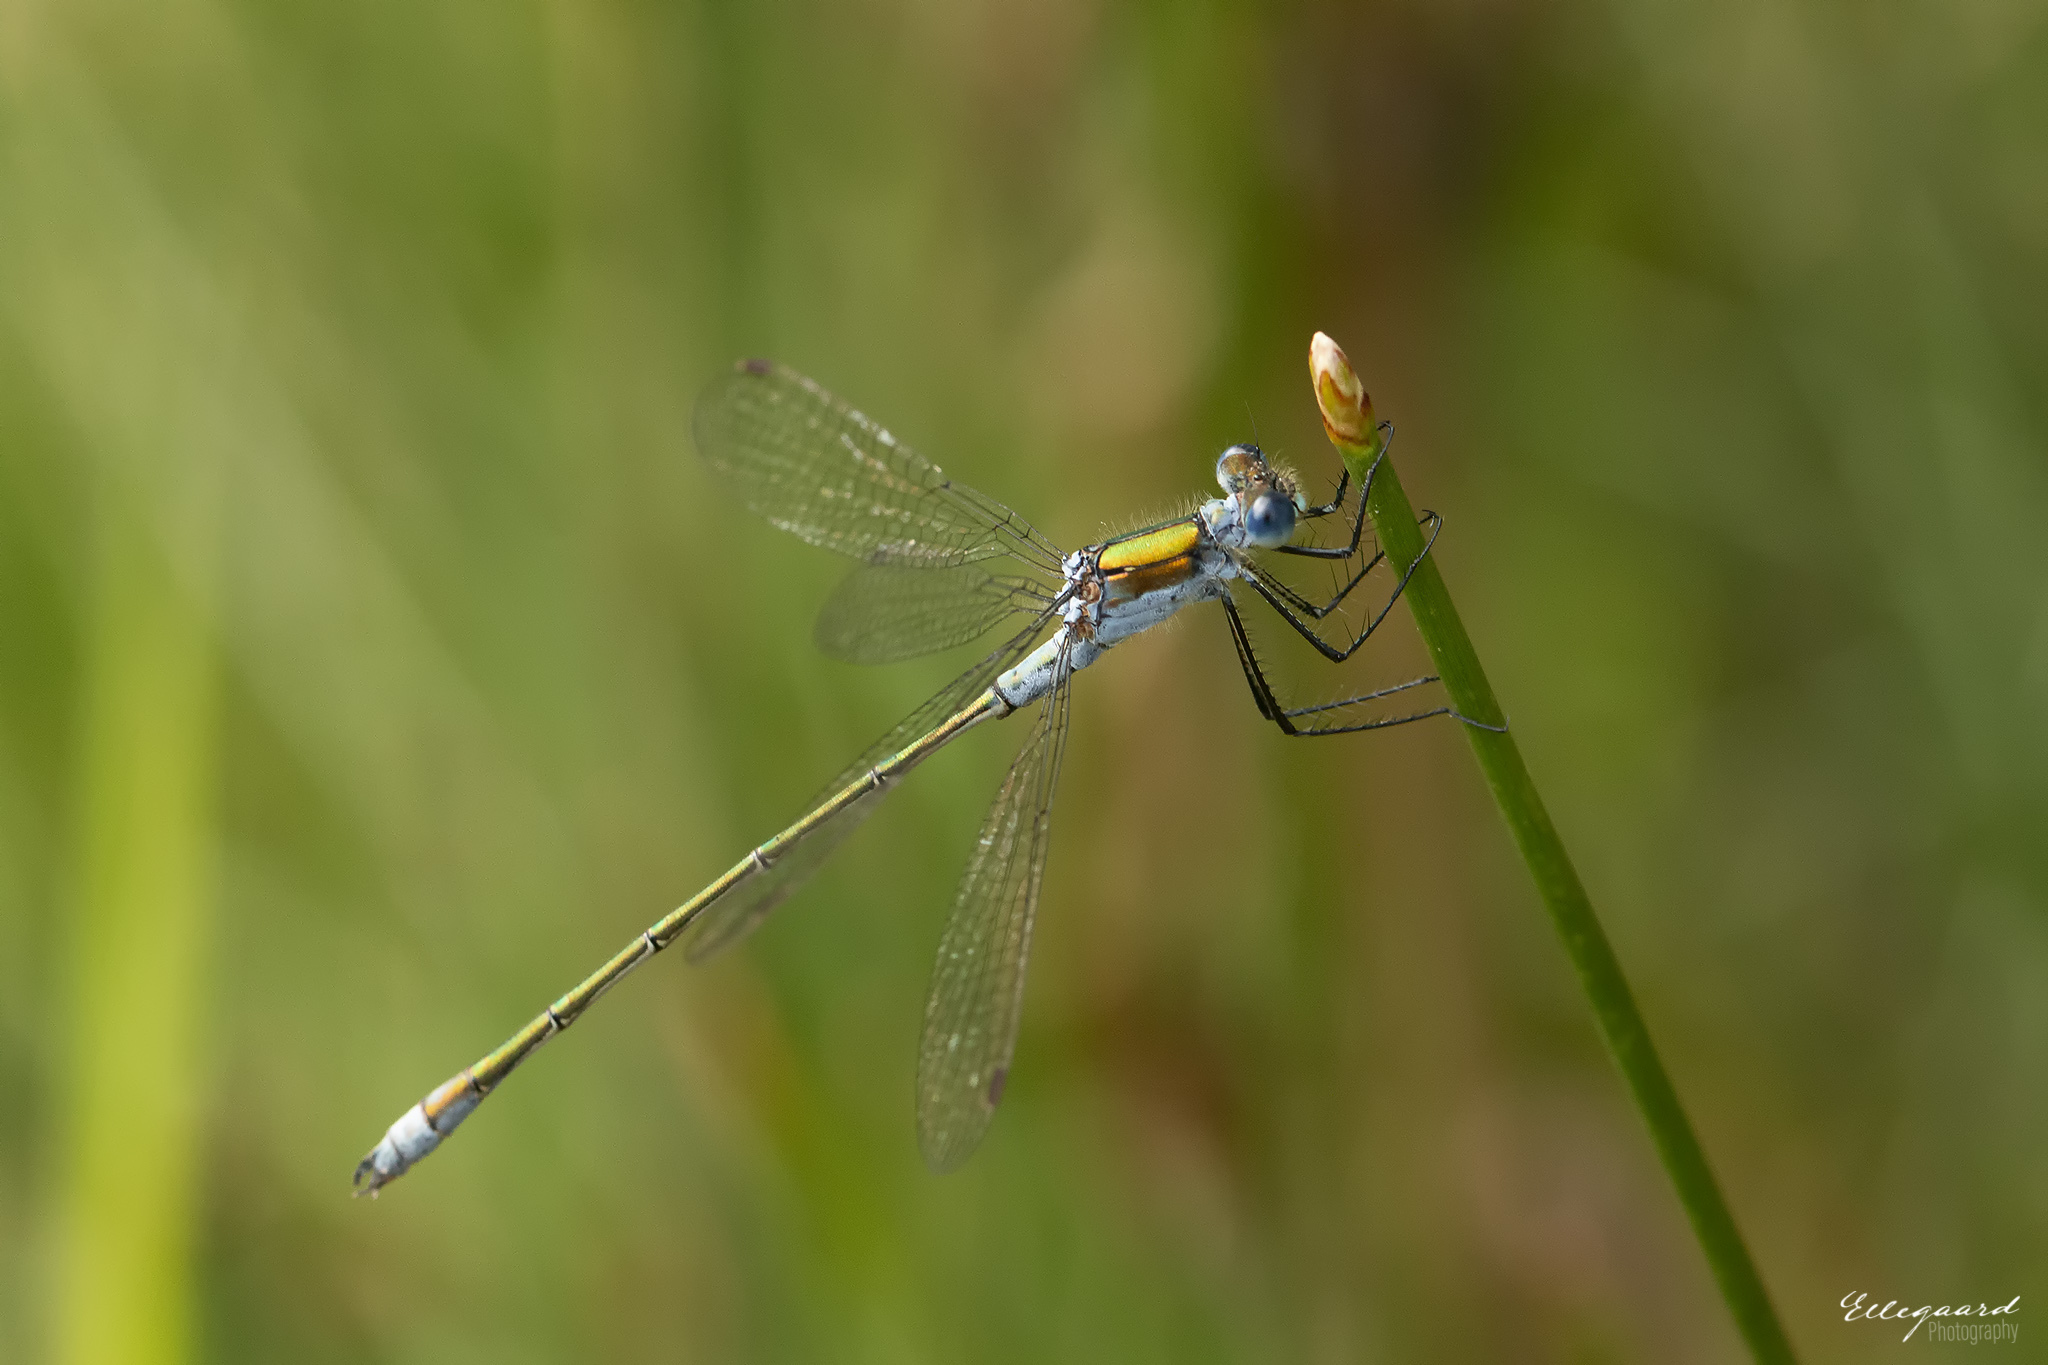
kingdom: Animalia
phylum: Arthropoda
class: Insecta
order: Odonata
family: Lestidae
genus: Lestes
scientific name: Lestes sponsa
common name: Common spreadwing
